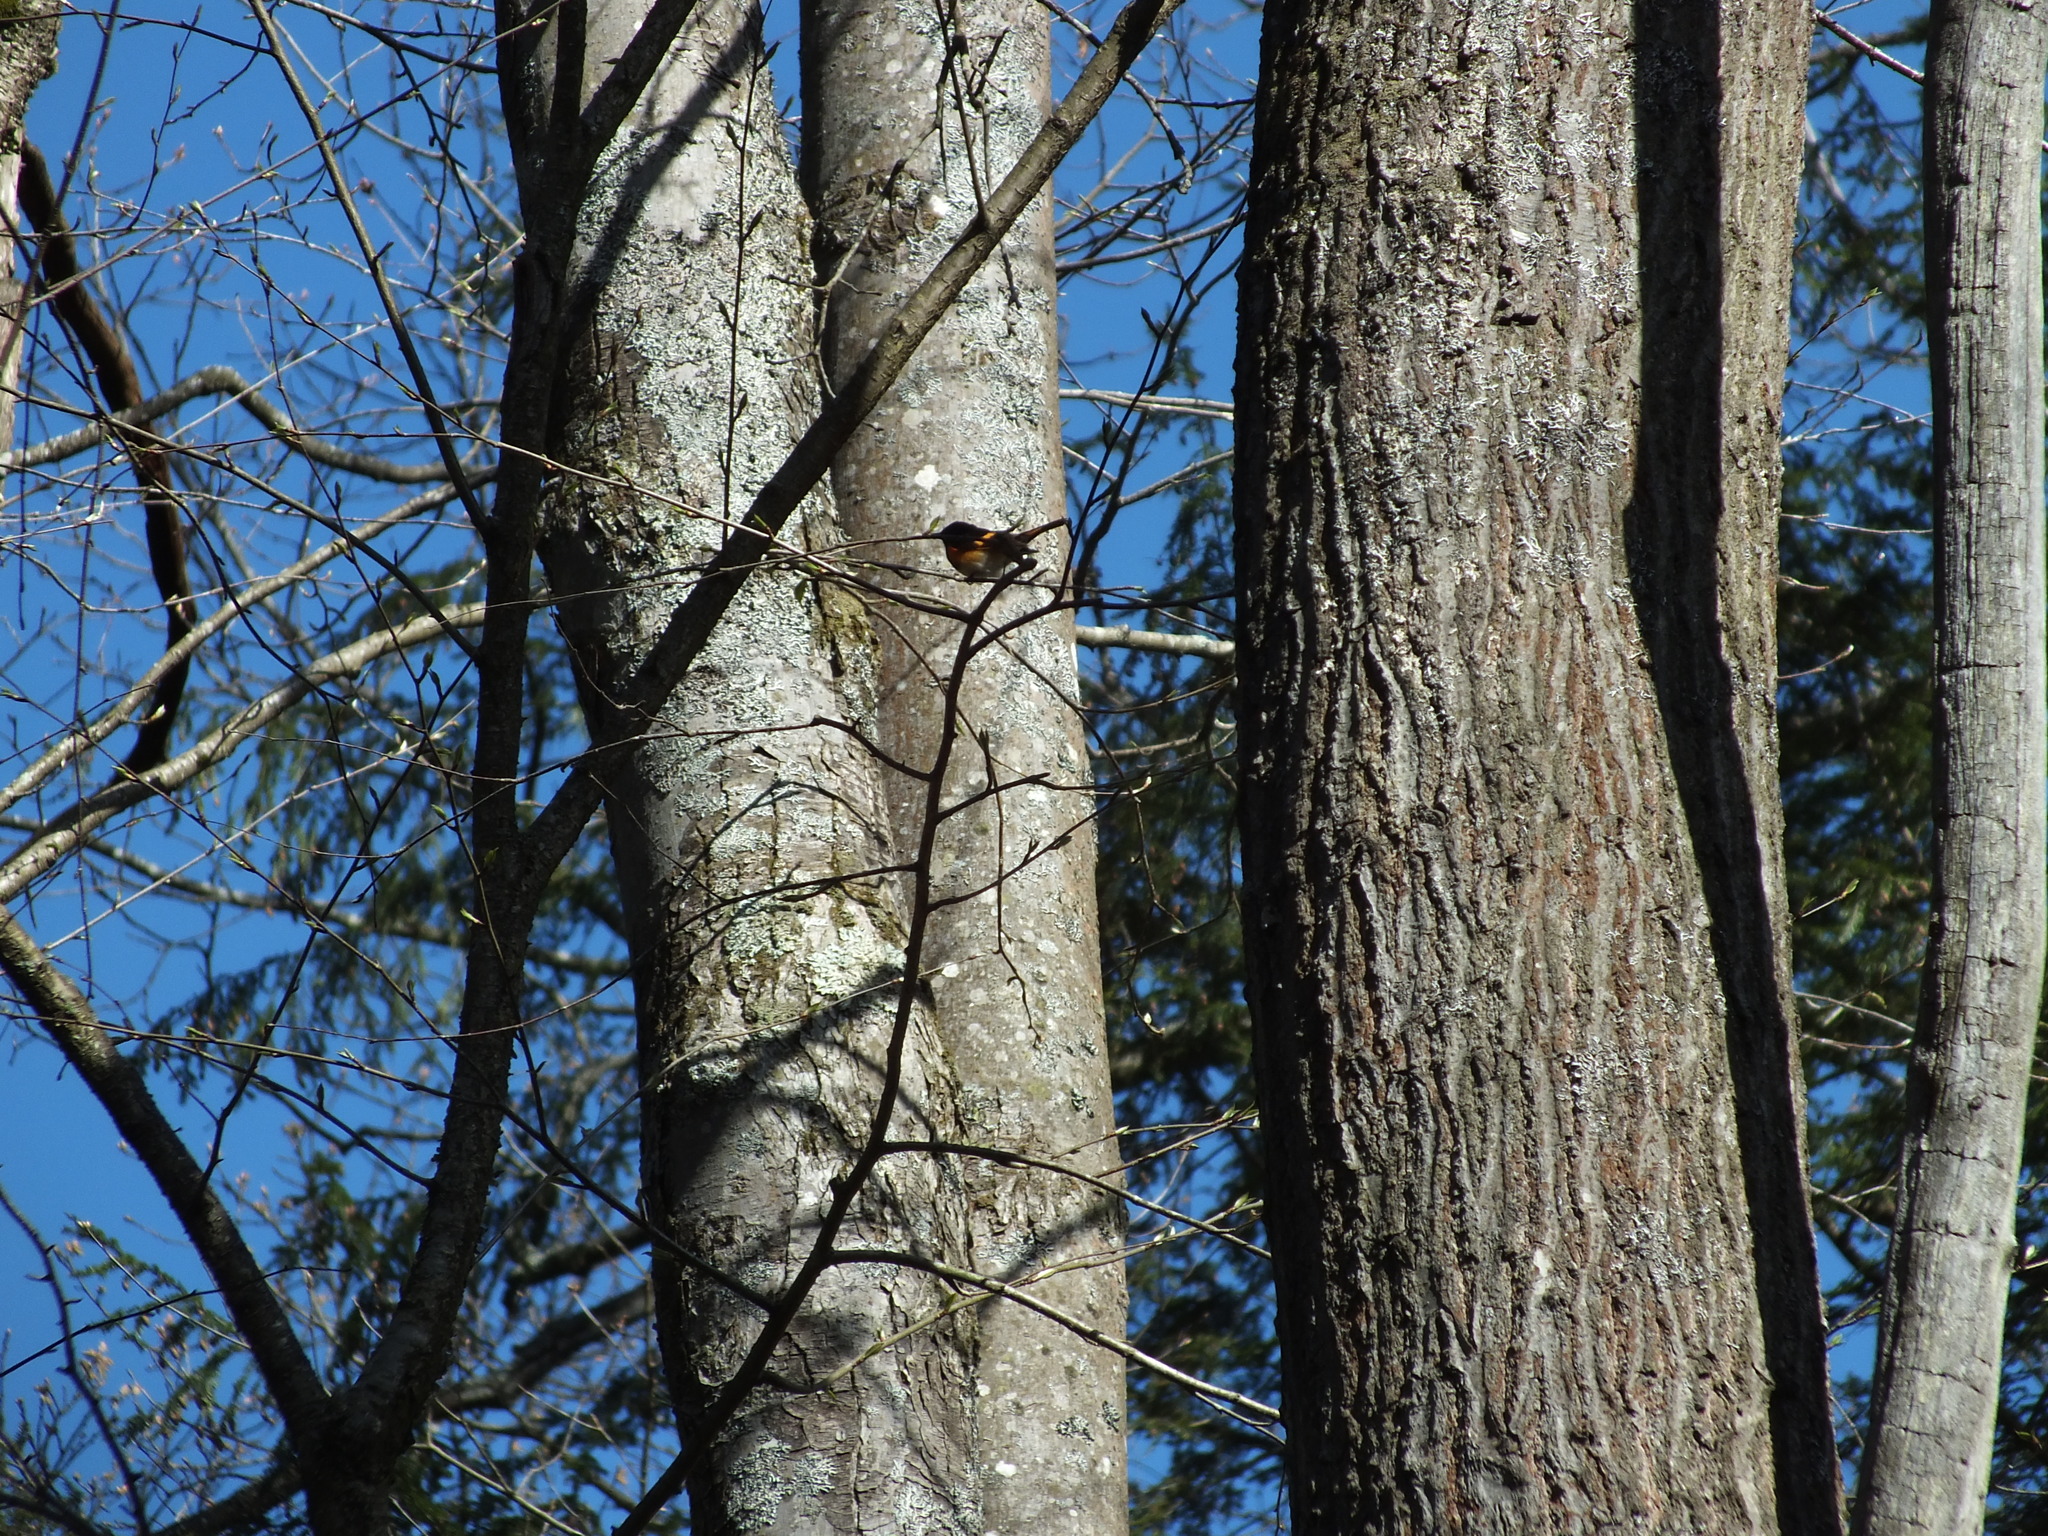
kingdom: Animalia
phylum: Chordata
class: Aves
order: Passeriformes
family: Parulidae
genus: Setophaga
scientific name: Setophaga ruticilla
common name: American redstart
